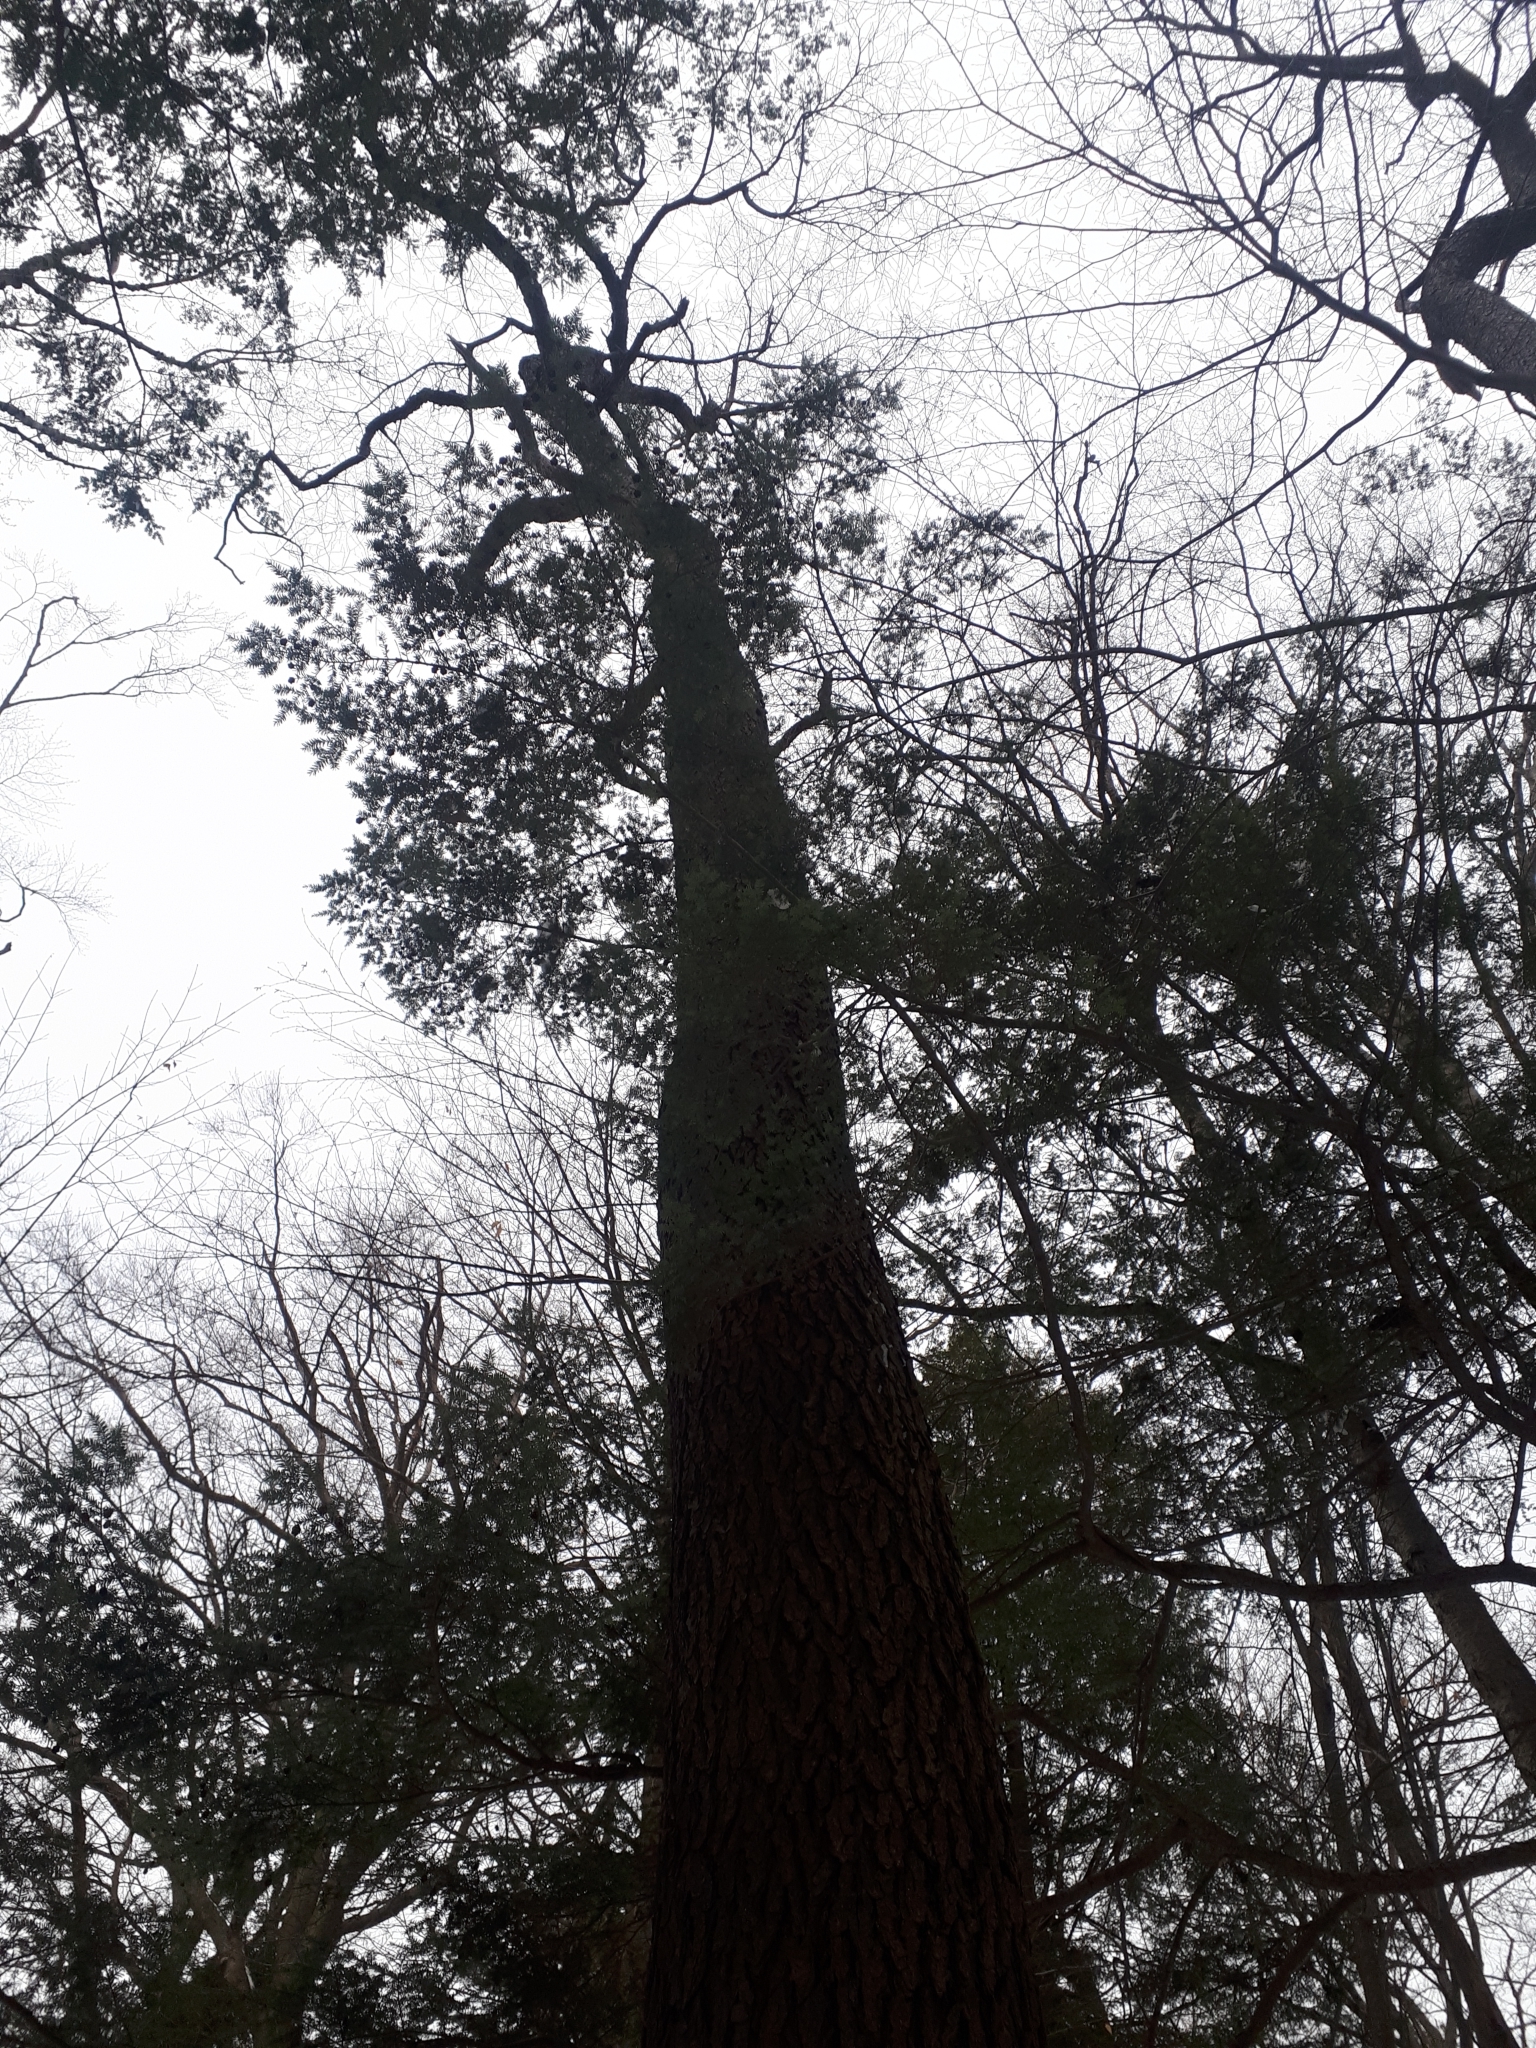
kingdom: Plantae
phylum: Tracheophyta
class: Magnoliopsida
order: Rosales
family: Rosaceae
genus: Prunus
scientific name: Prunus serotina
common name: Black cherry
